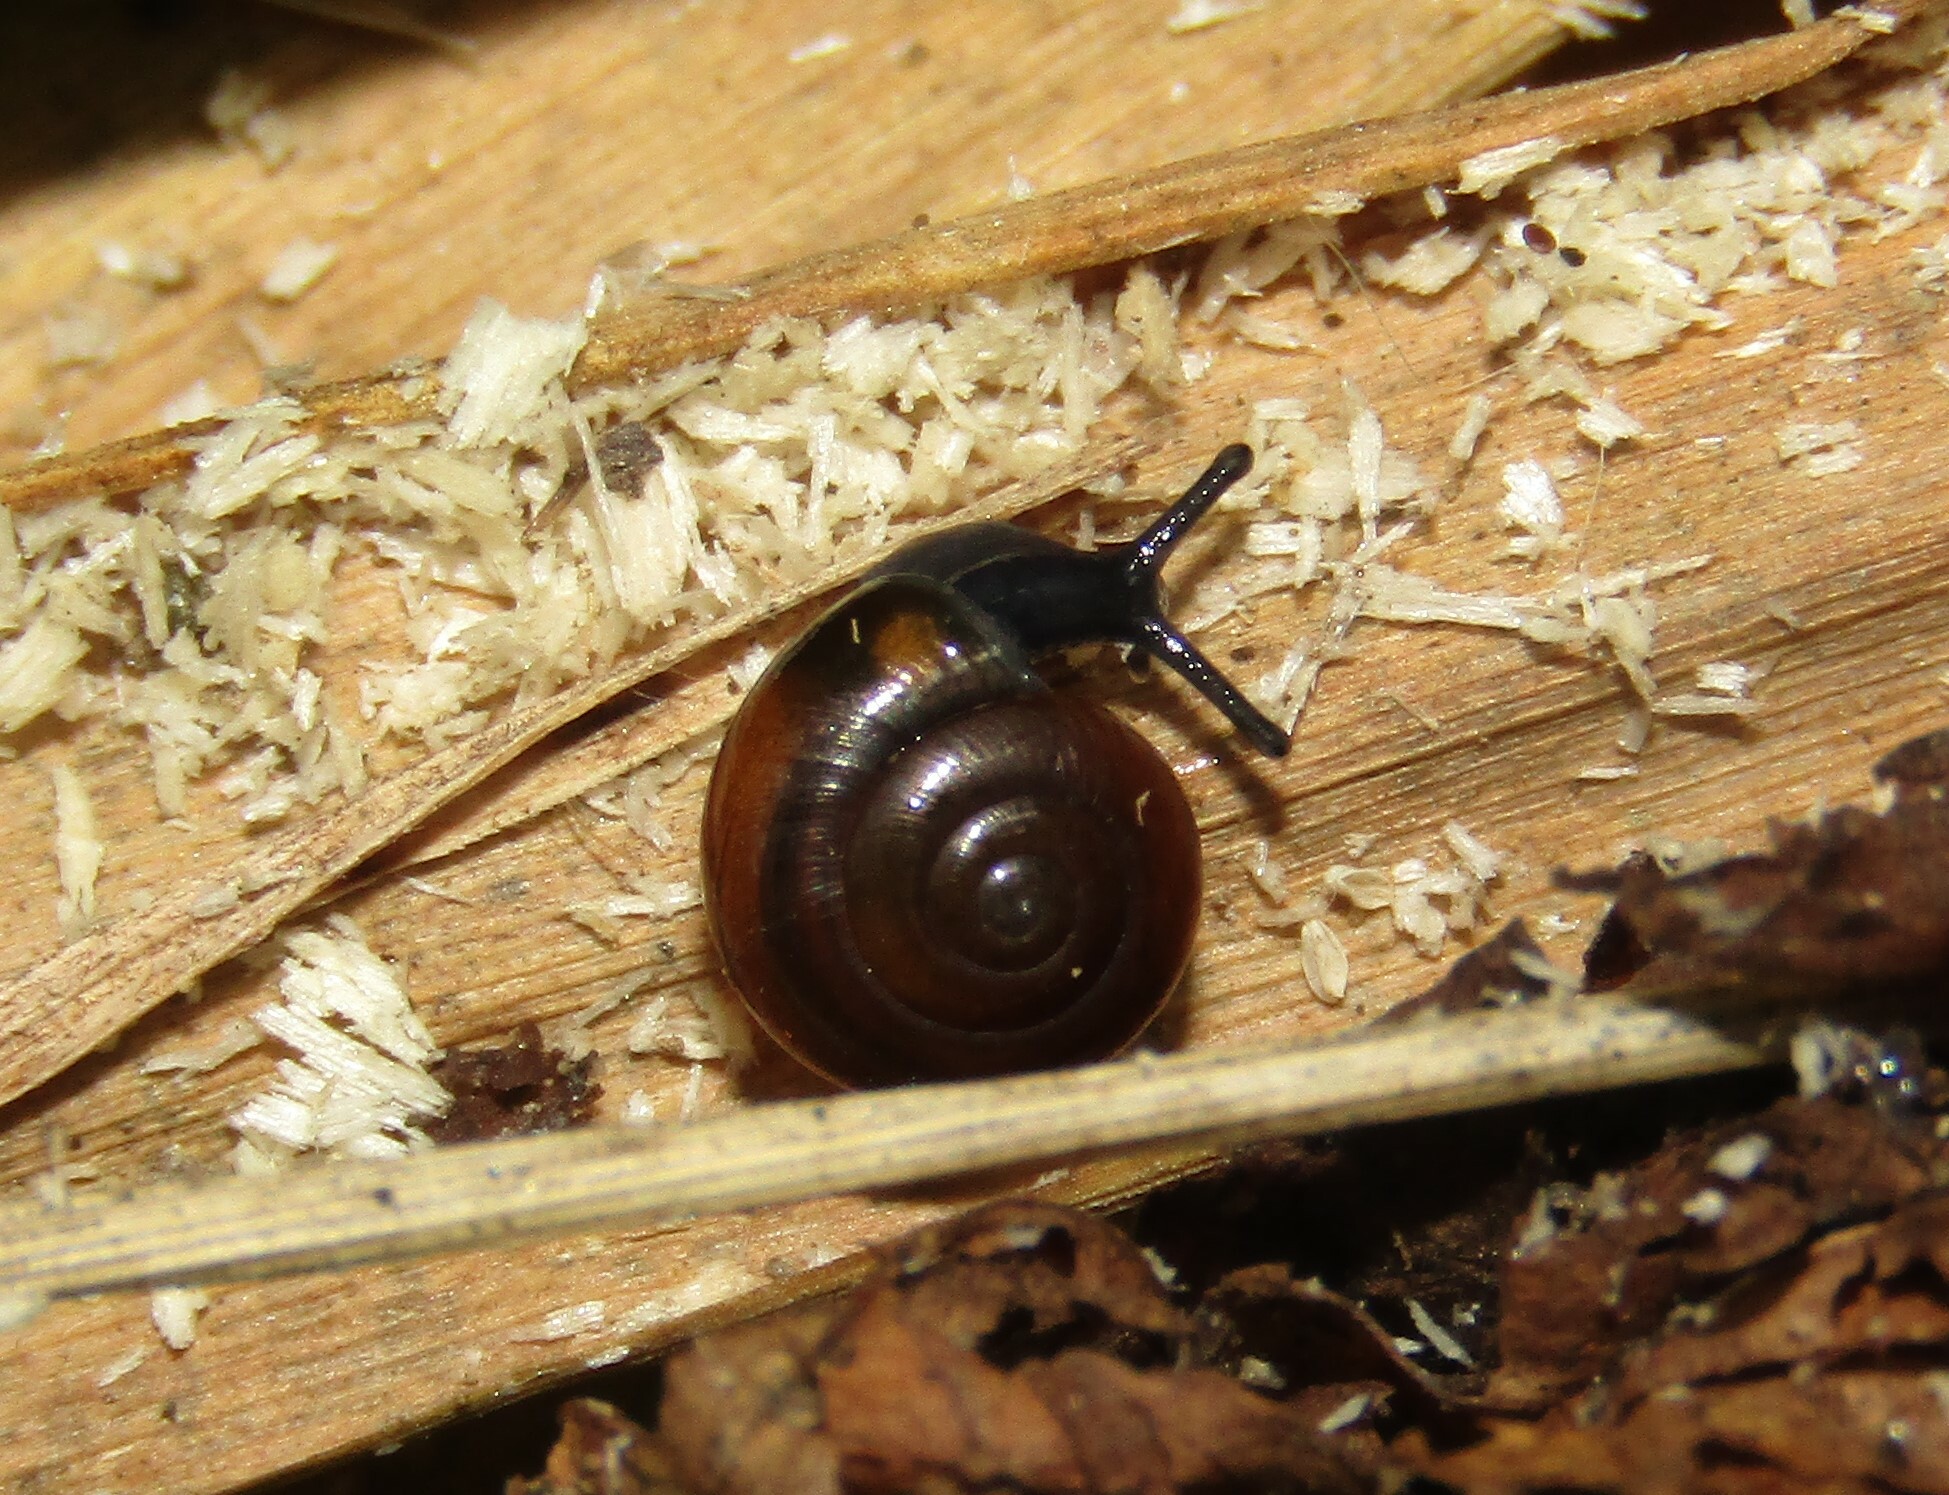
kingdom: Animalia
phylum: Mollusca
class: Gastropoda
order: Stylommatophora
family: Gastrodontidae
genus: Zonitoides
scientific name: Zonitoides nitidus
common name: Shiny glass snail
